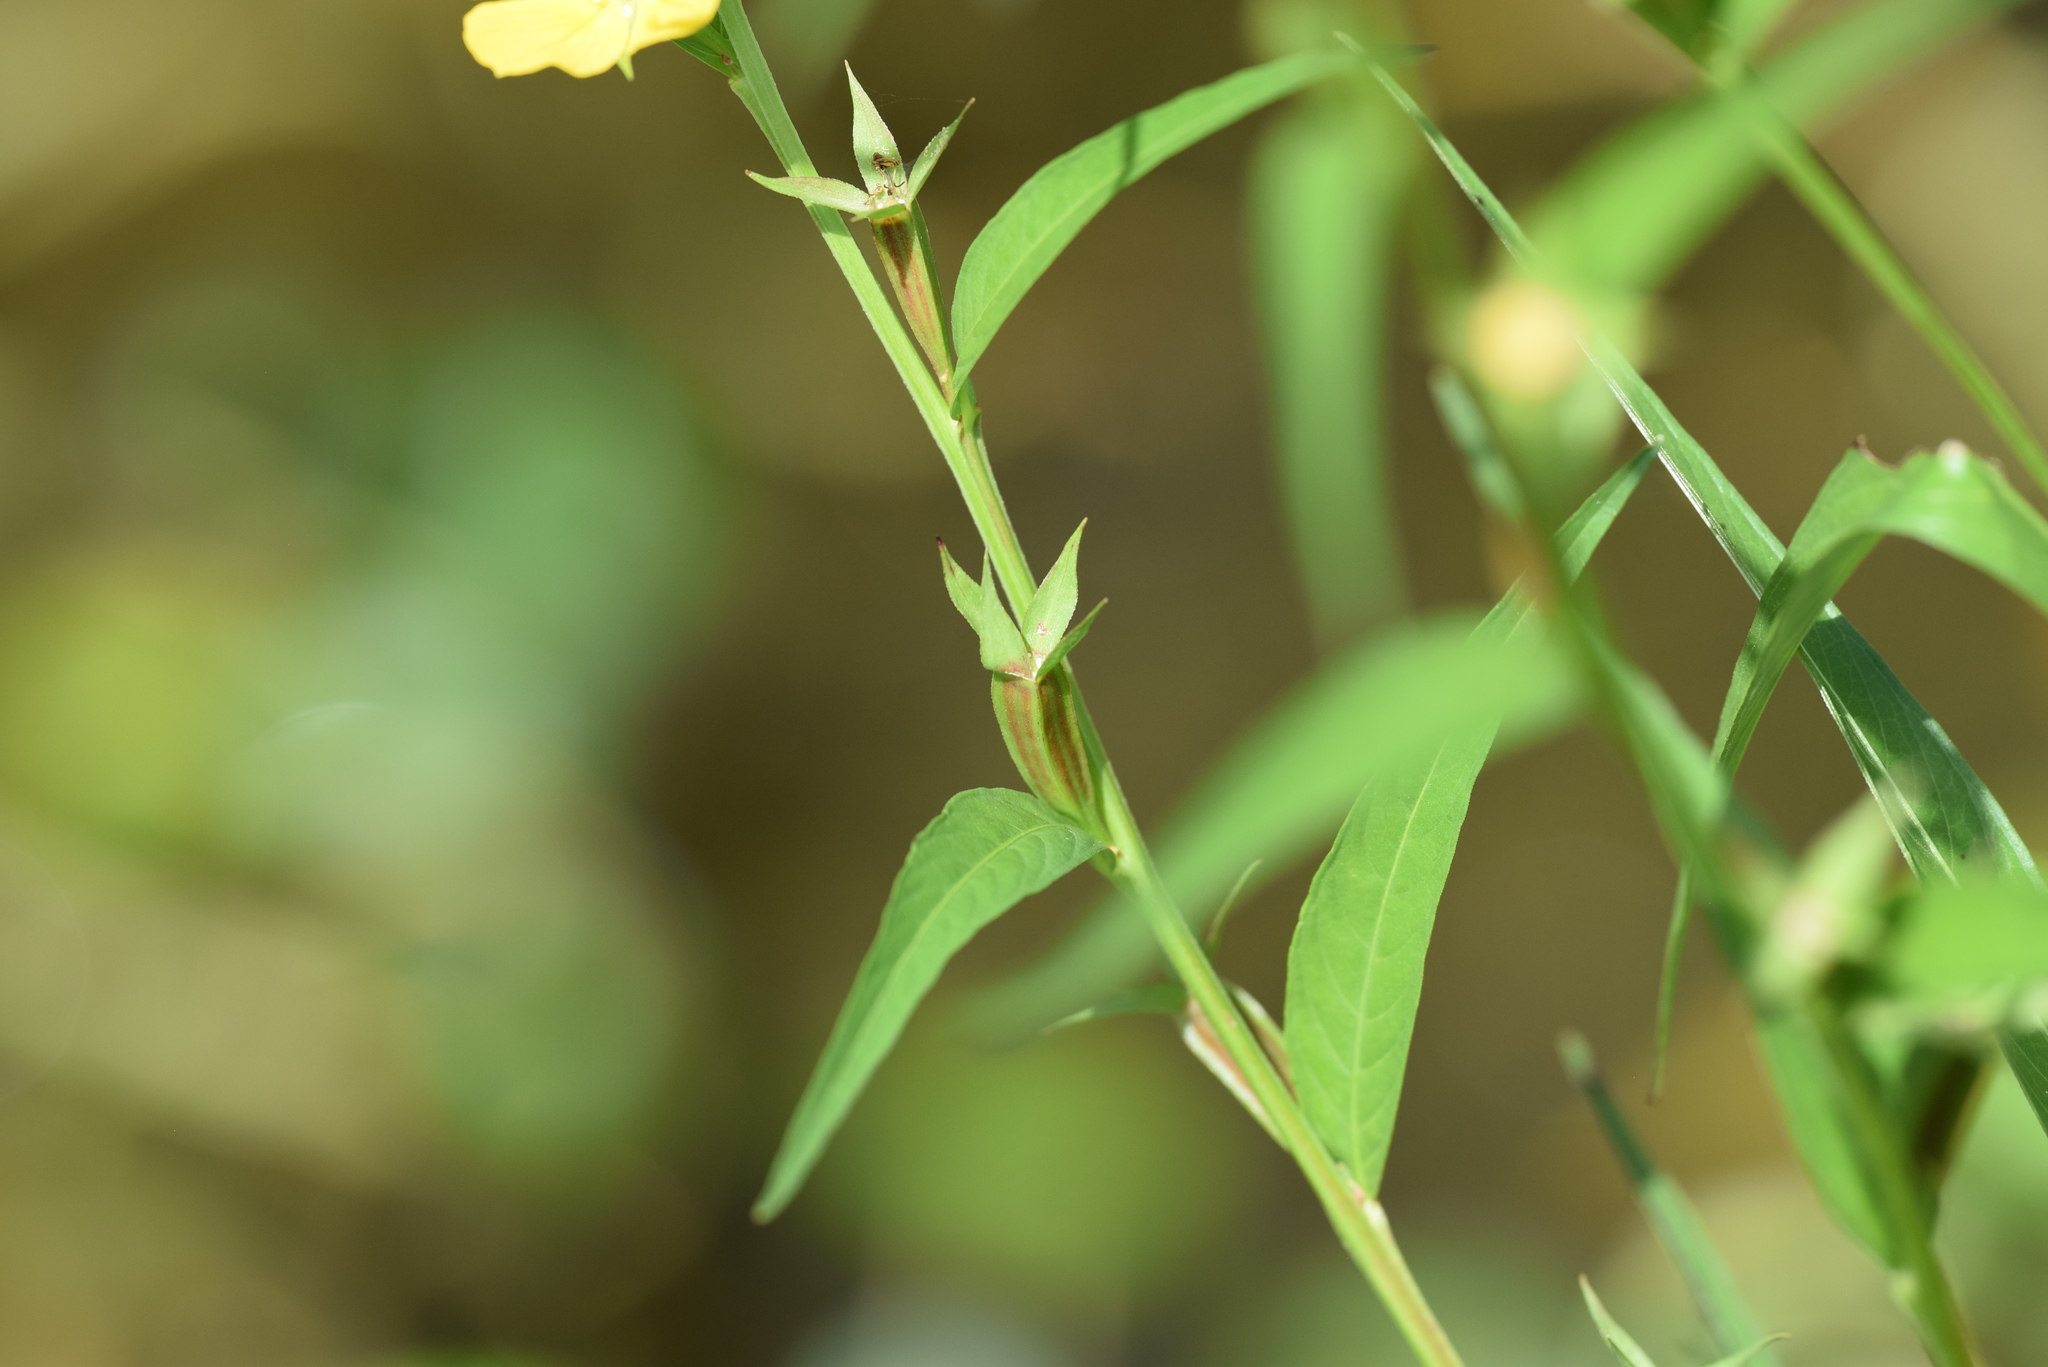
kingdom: Plantae
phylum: Tracheophyta
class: Magnoliopsida
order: Myrtales
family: Onagraceae
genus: Ludwigia
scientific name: Ludwigia decurrens
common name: Winged water-primrose
